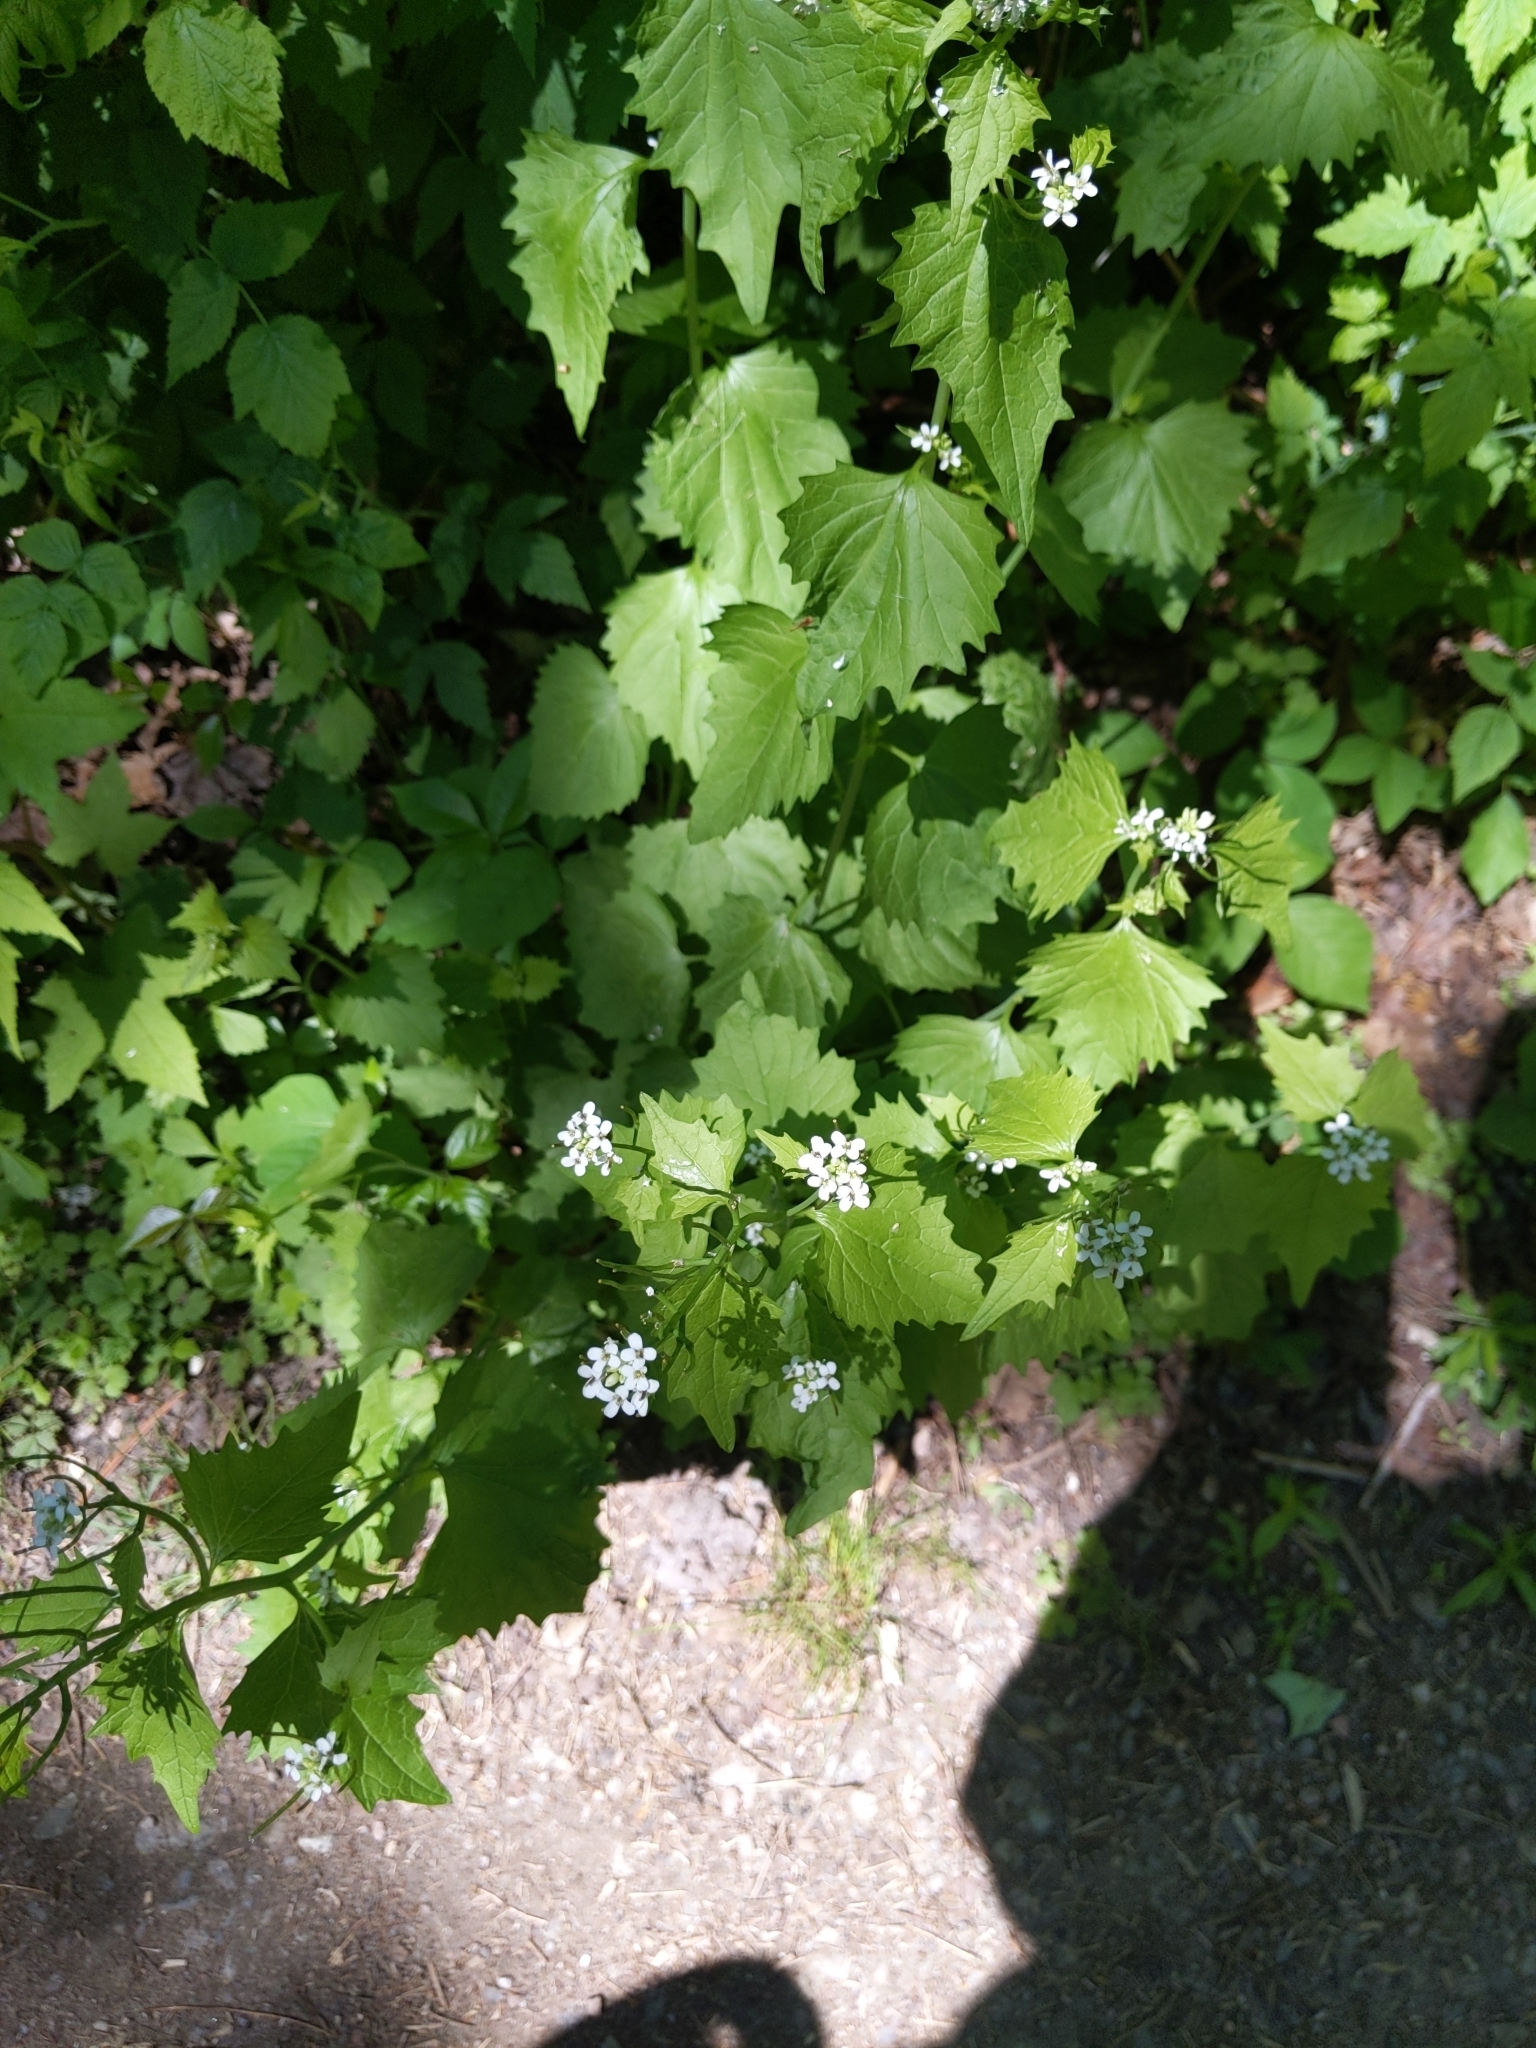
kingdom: Plantae
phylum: Tracheophyta
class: Magnoliopsida
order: Brassicales
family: Brassicaceae
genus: Alliaria
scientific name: Alliaria petiolata
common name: Garlic mustard
